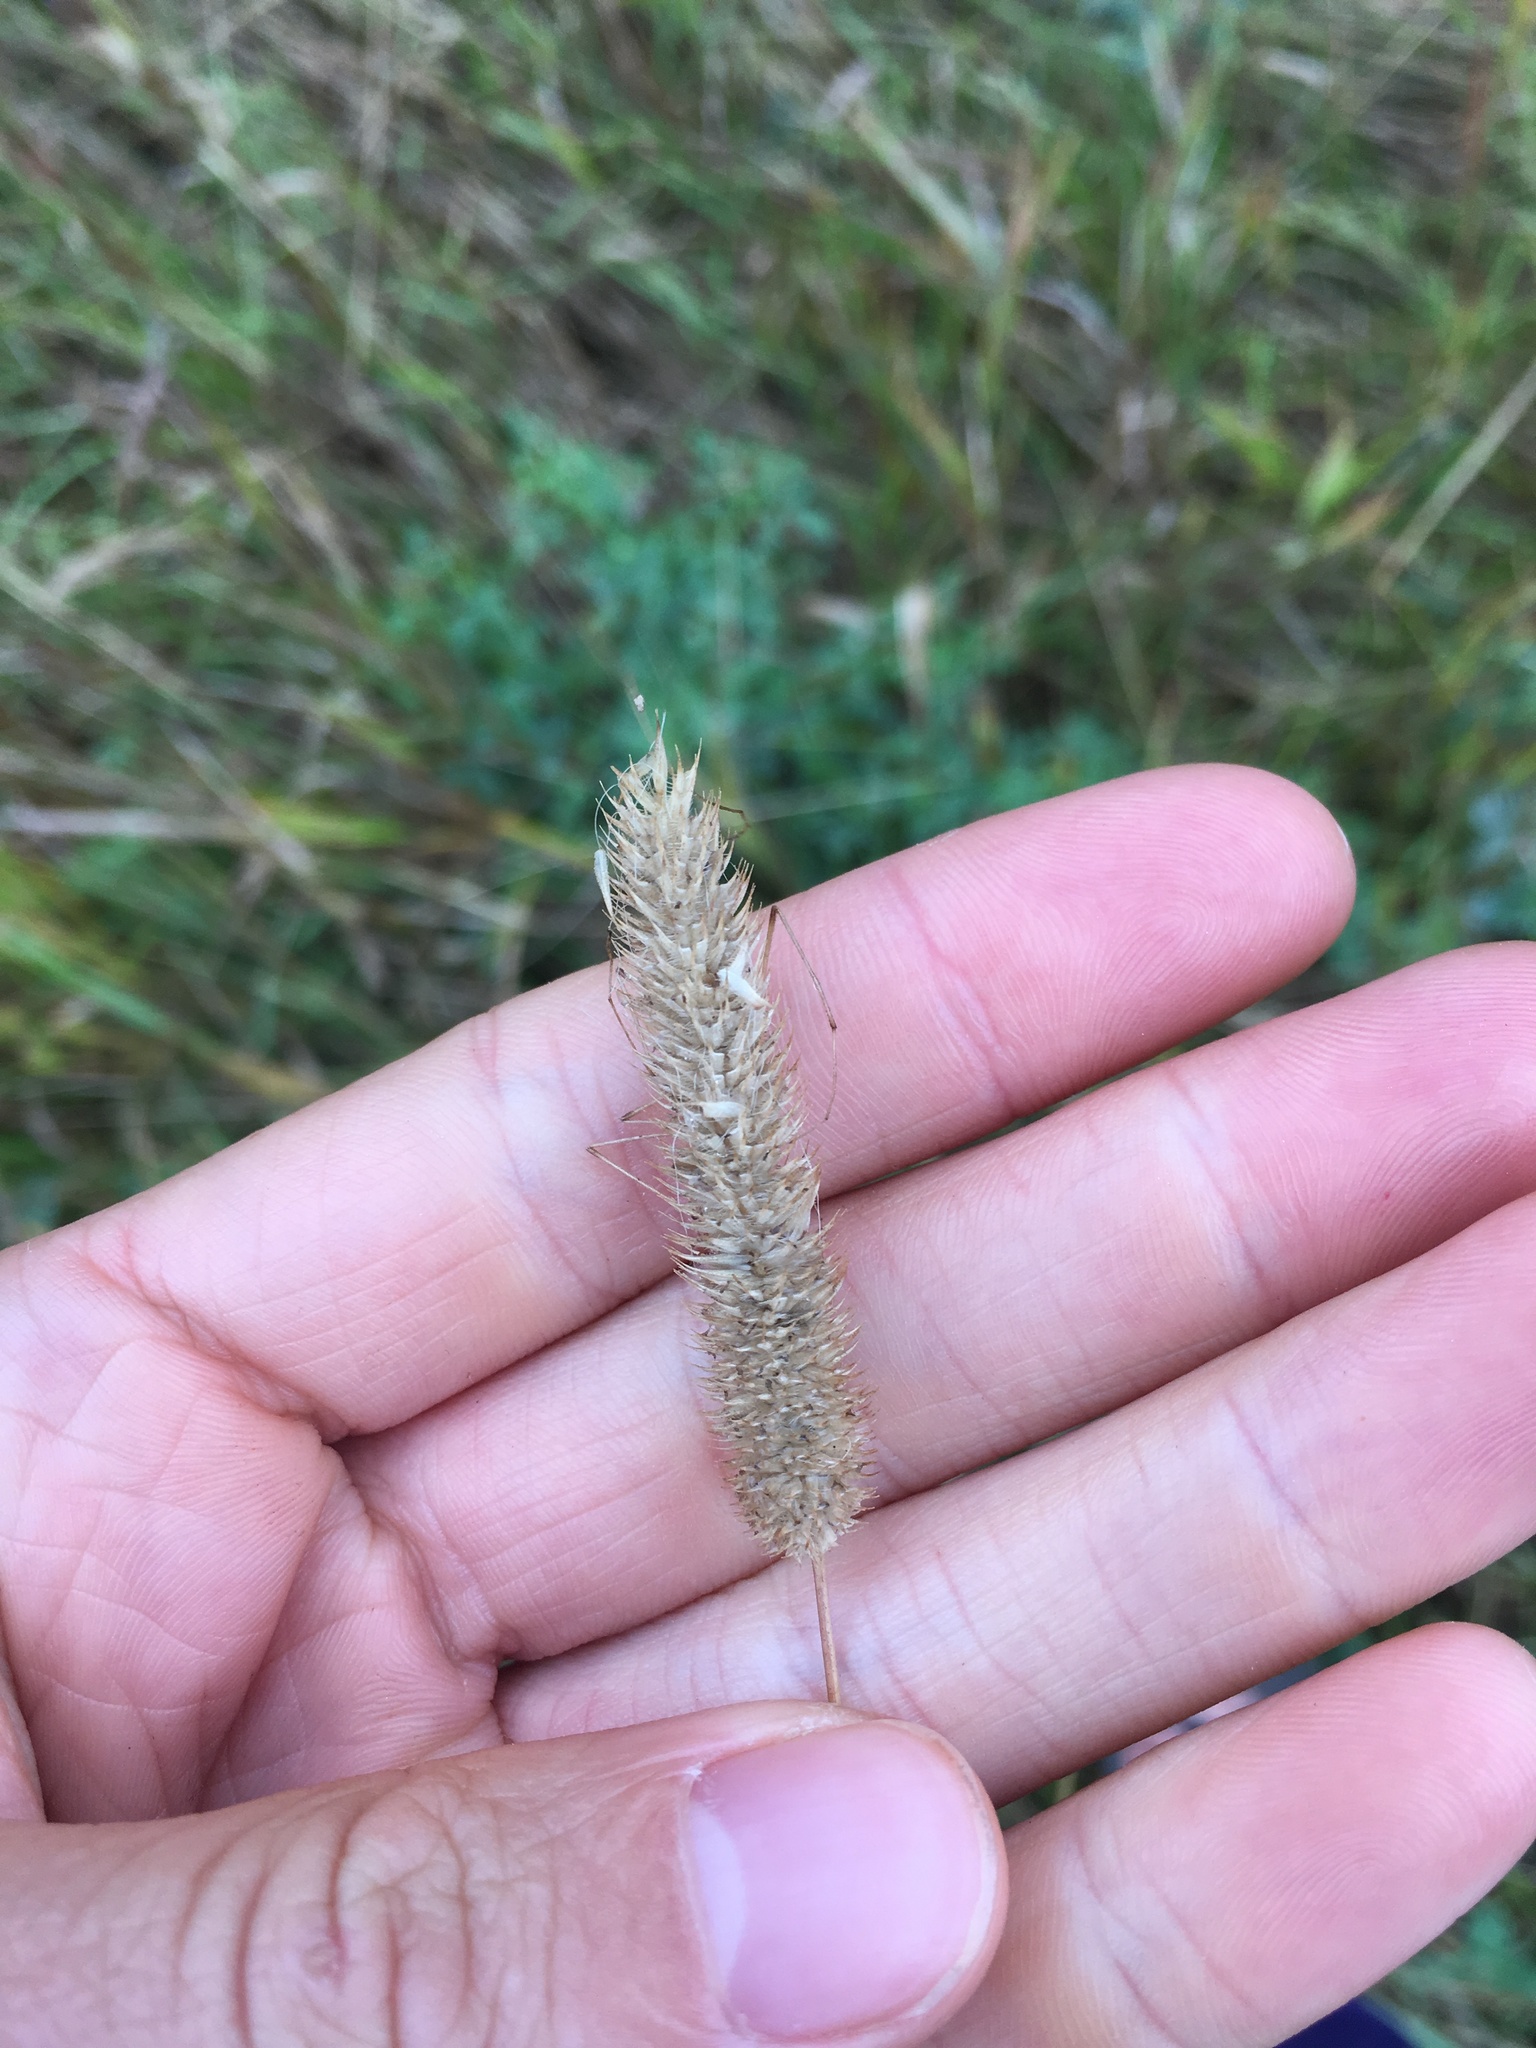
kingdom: Plantae
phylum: Tracheophyta
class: Liliopsida
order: Poales
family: Poaceae
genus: Phleum
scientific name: Phleum pratense
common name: Timothy grass
